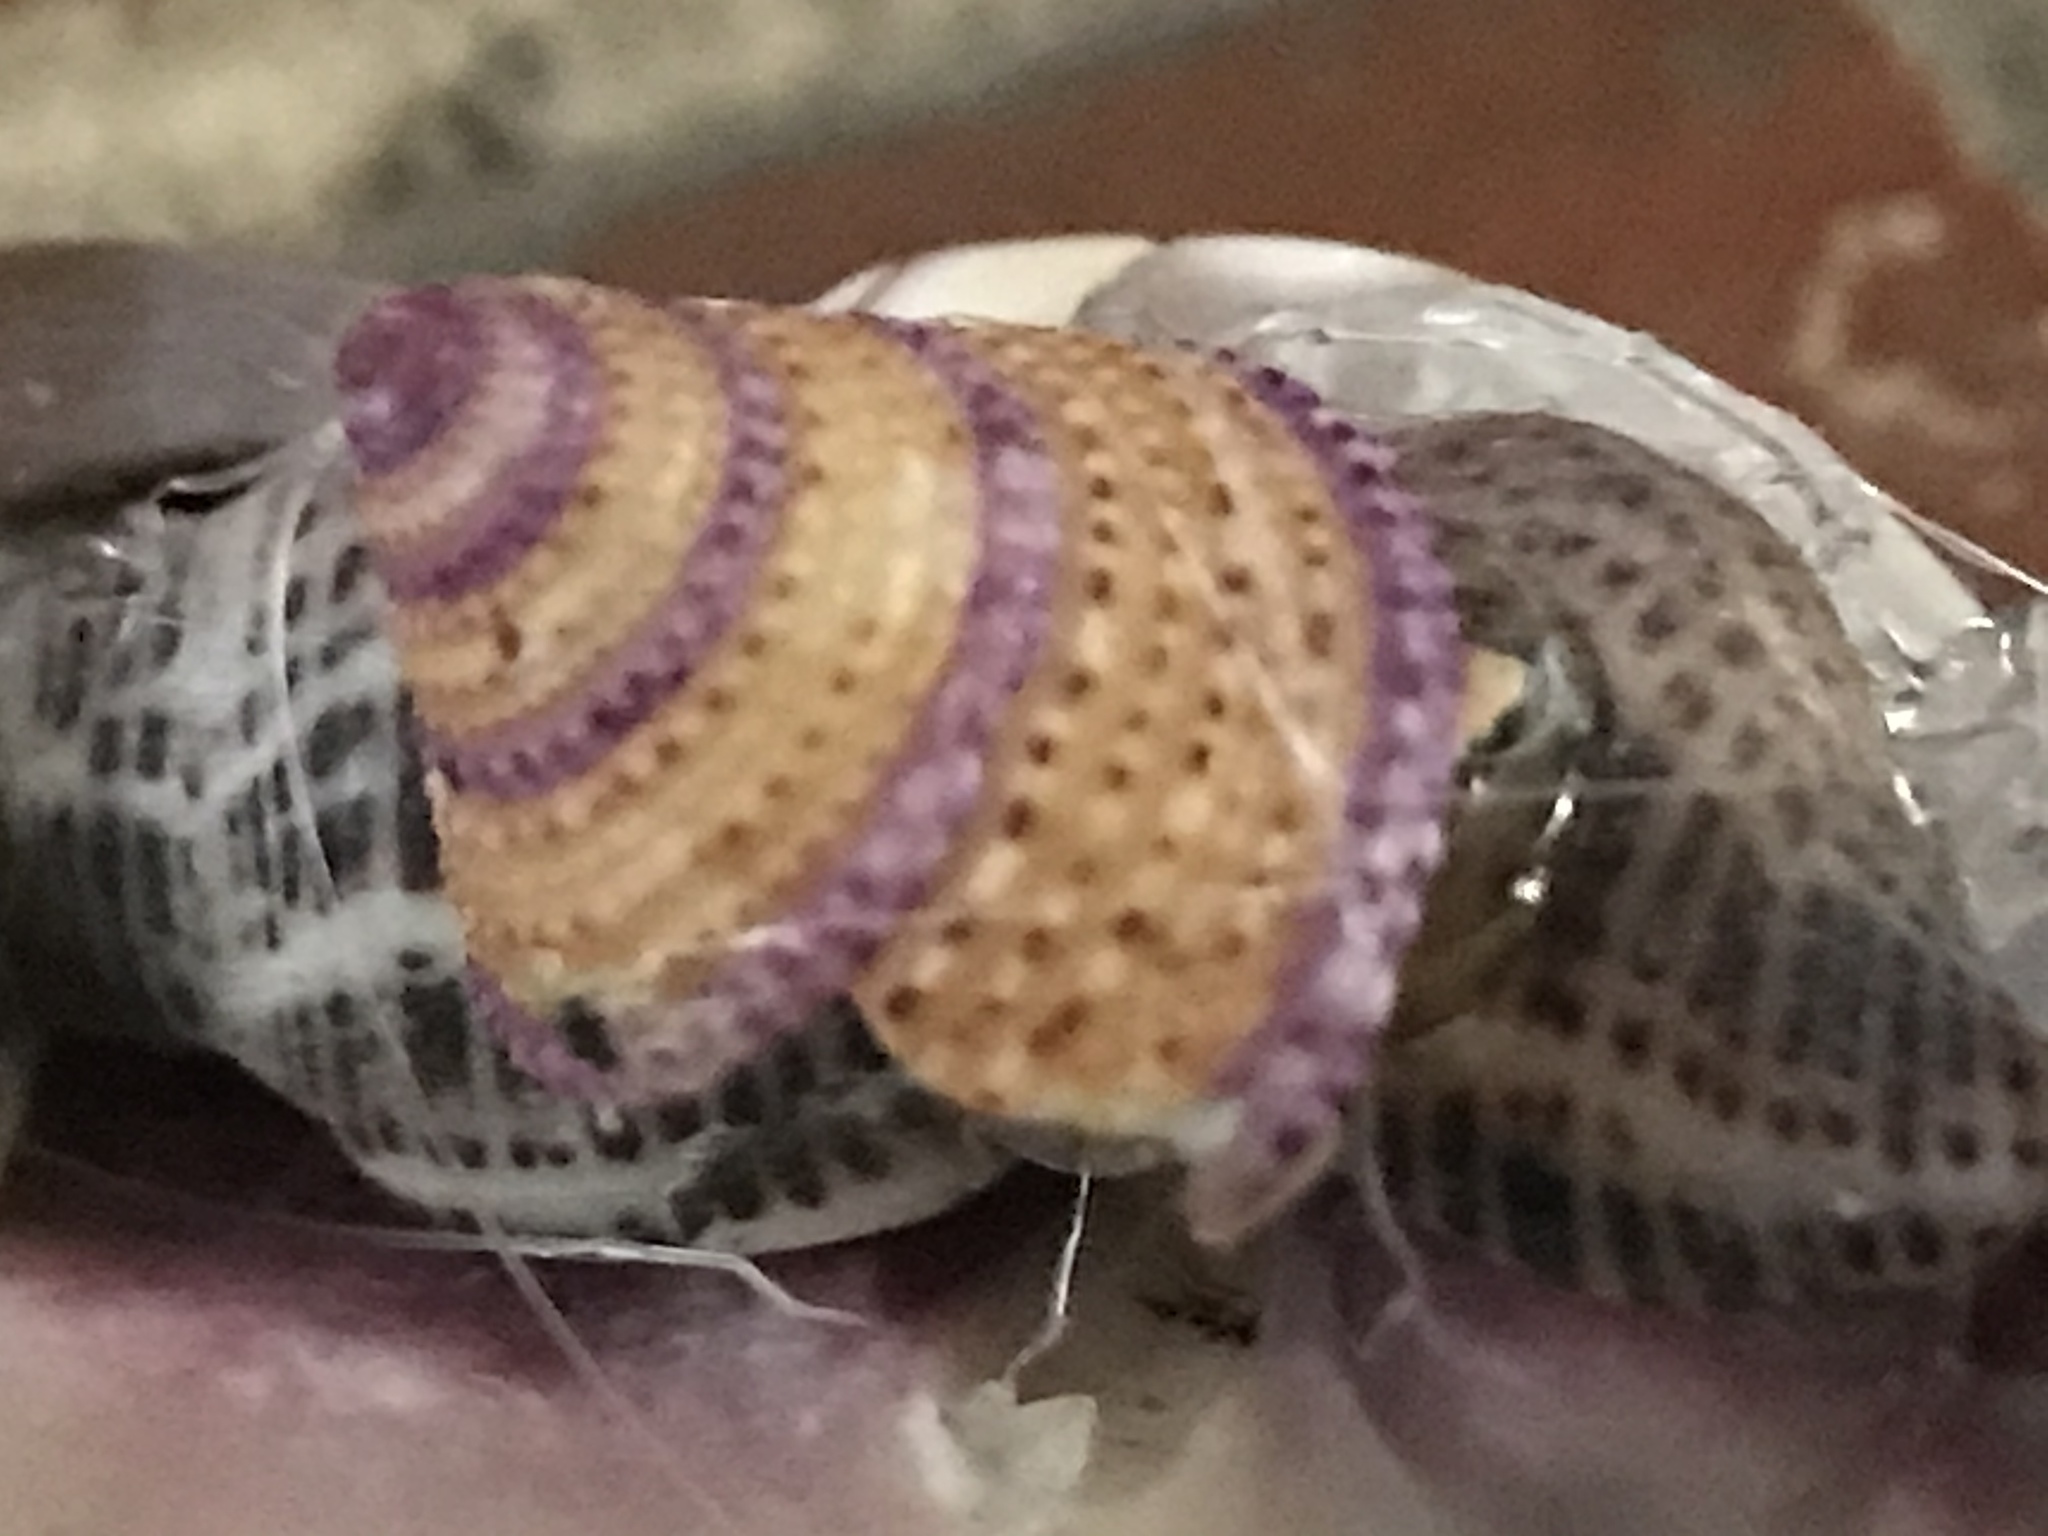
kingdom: Animalia
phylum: Mollusca
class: Gastropoda
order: Trochida
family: Calliostomatidae
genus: Calliostoma
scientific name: Calliostoma annulatum
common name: Blue-ring topsnail
